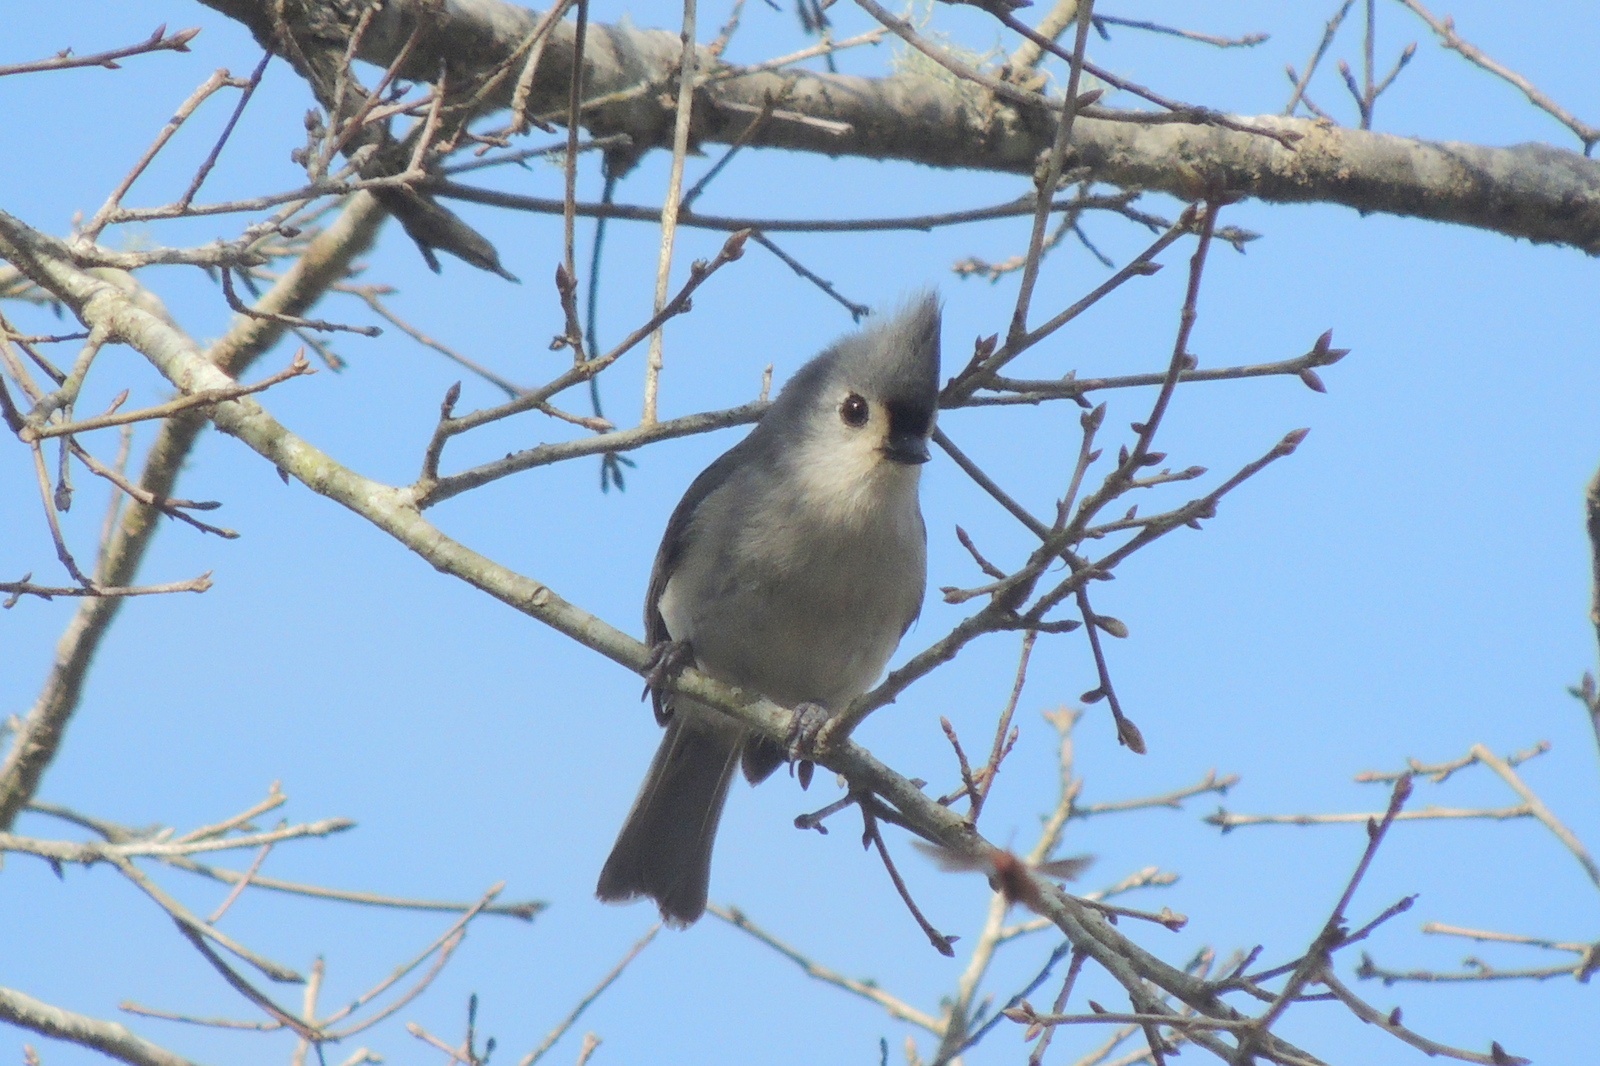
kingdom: Animalia
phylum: Chordata
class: Aves
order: Passeriformes
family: Paridae
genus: Baeolophus
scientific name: Baeolophus bicolor
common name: Tufted titmouse
